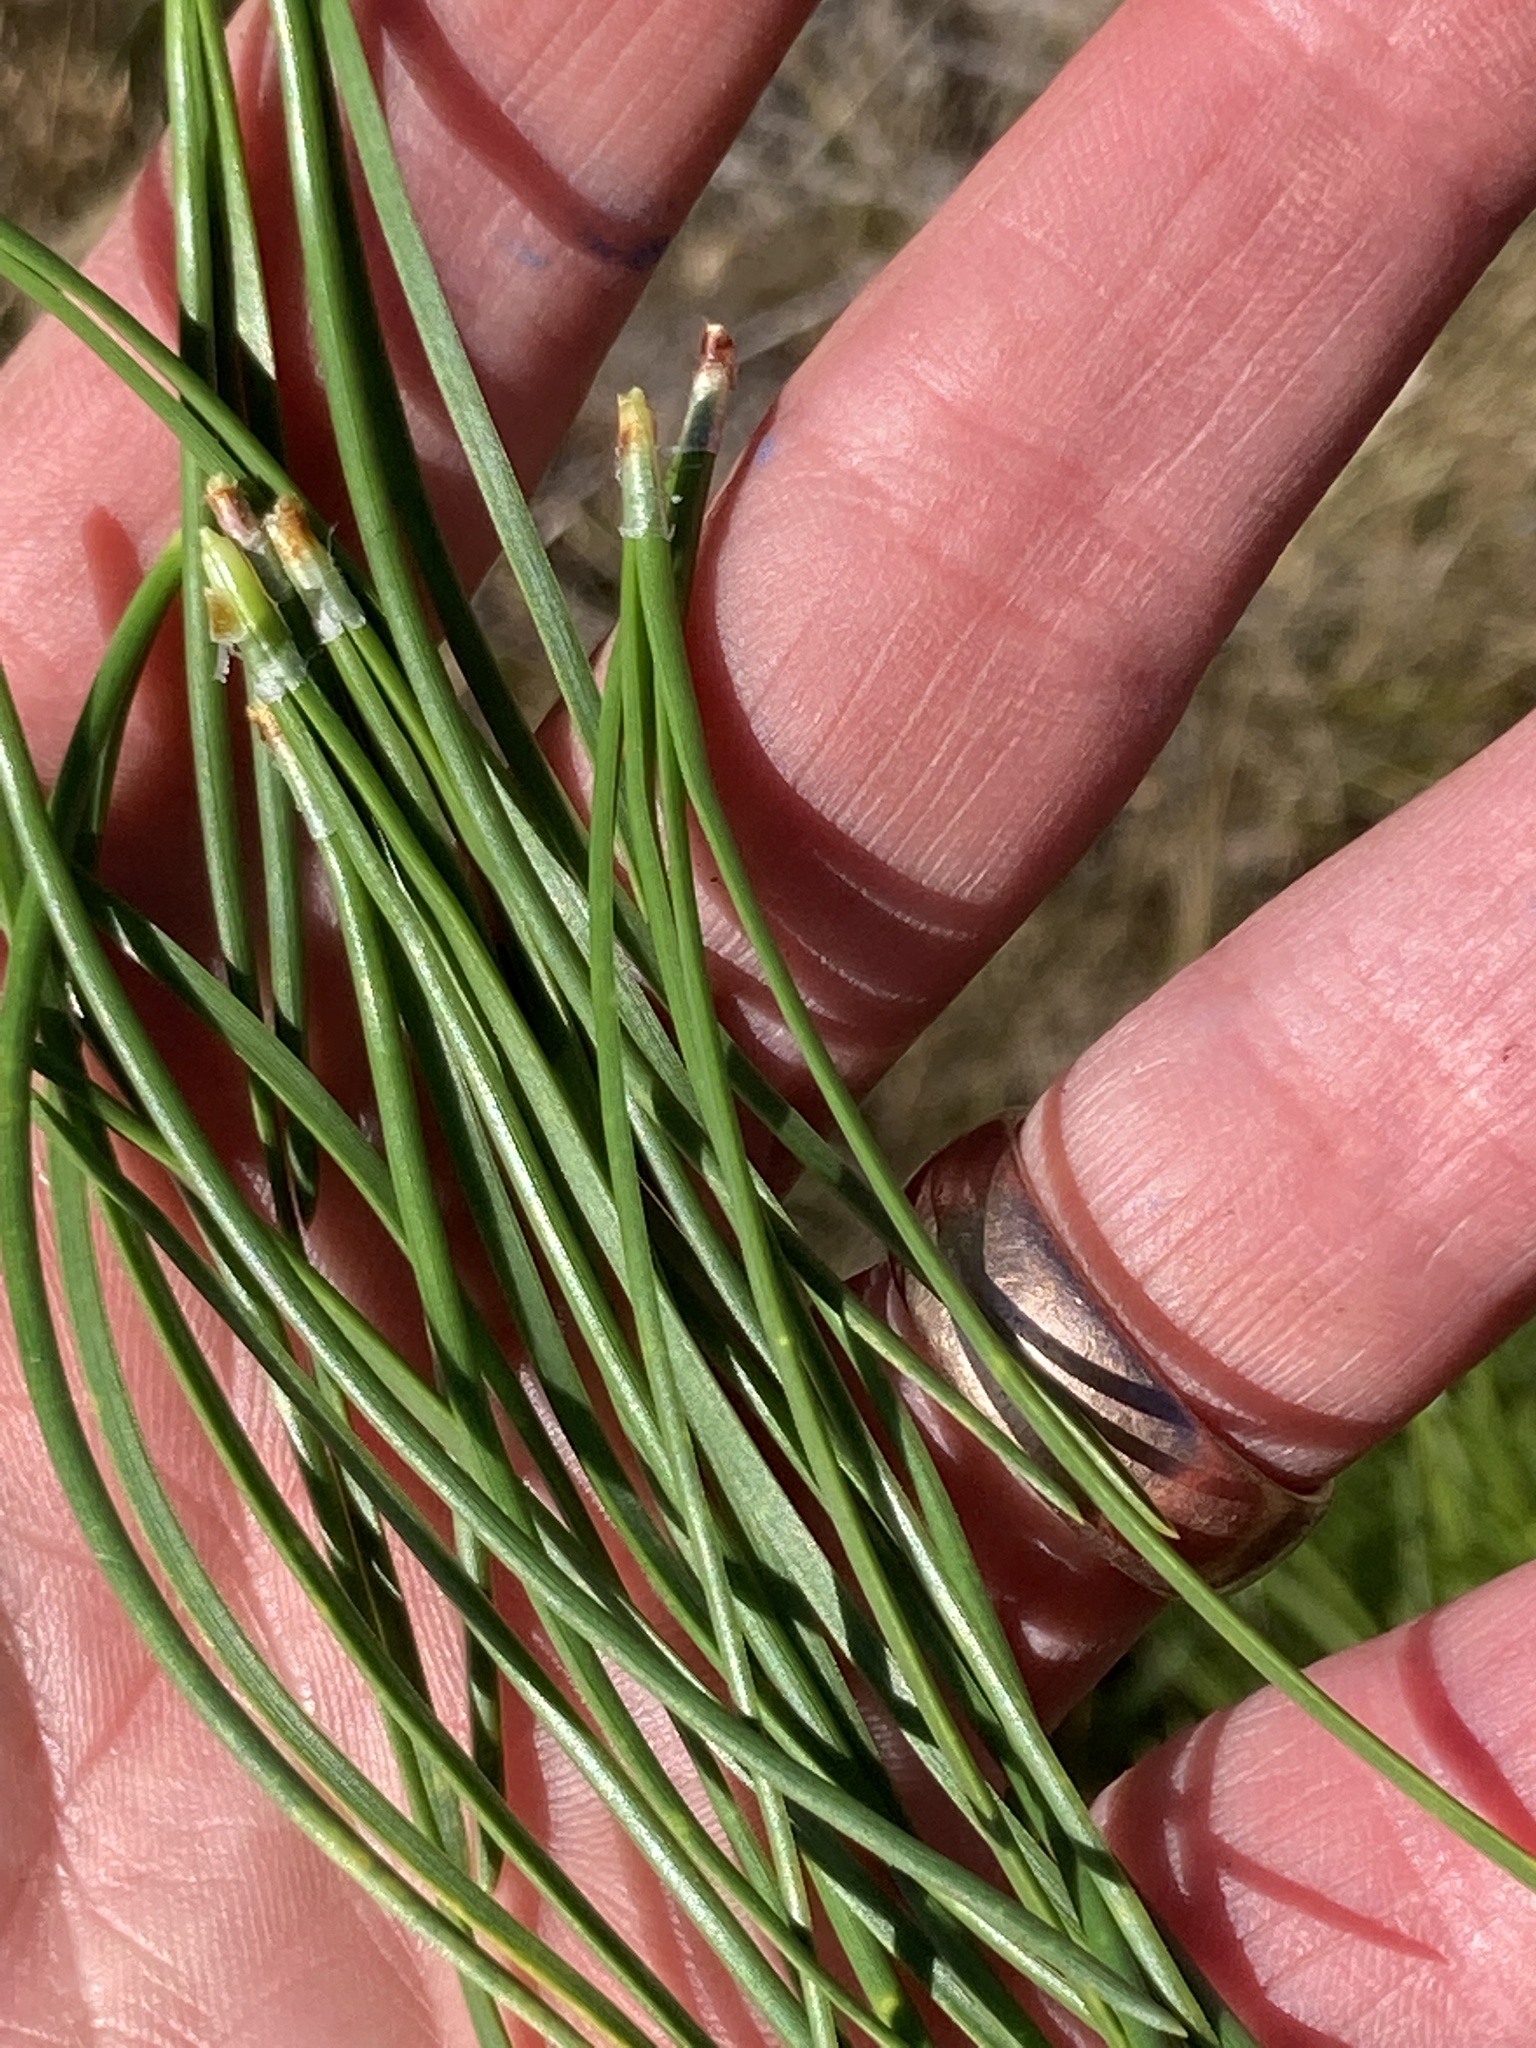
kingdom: Plantae
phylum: Tracheophyta
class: Pinopsida
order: Pinales
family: Pinaceae
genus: Pinus
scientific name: Pinus contorta
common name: Lodgepole pine
